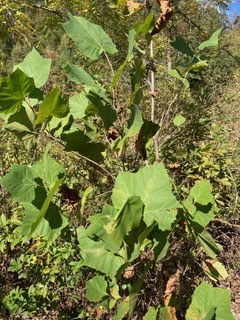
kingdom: Plantae
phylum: Tracheophyta
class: Magnoliopsida
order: Proteales
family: Platanaceae
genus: Platanus
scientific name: Platanus occidentalis
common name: American sycamore
